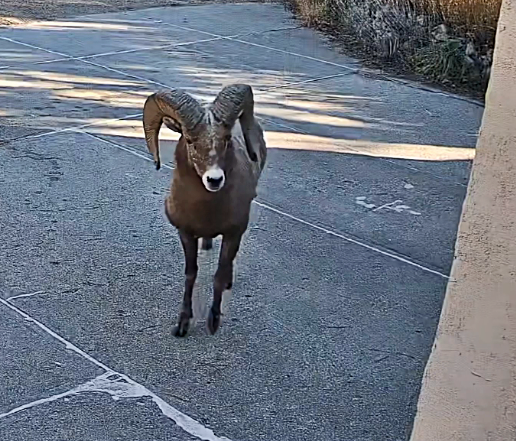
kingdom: Animalia
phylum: Chordata
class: Mammalia
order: Artiodactyla
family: Bovidae
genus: Ovis
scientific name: Ovis canadensis
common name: Bighorn sheep
